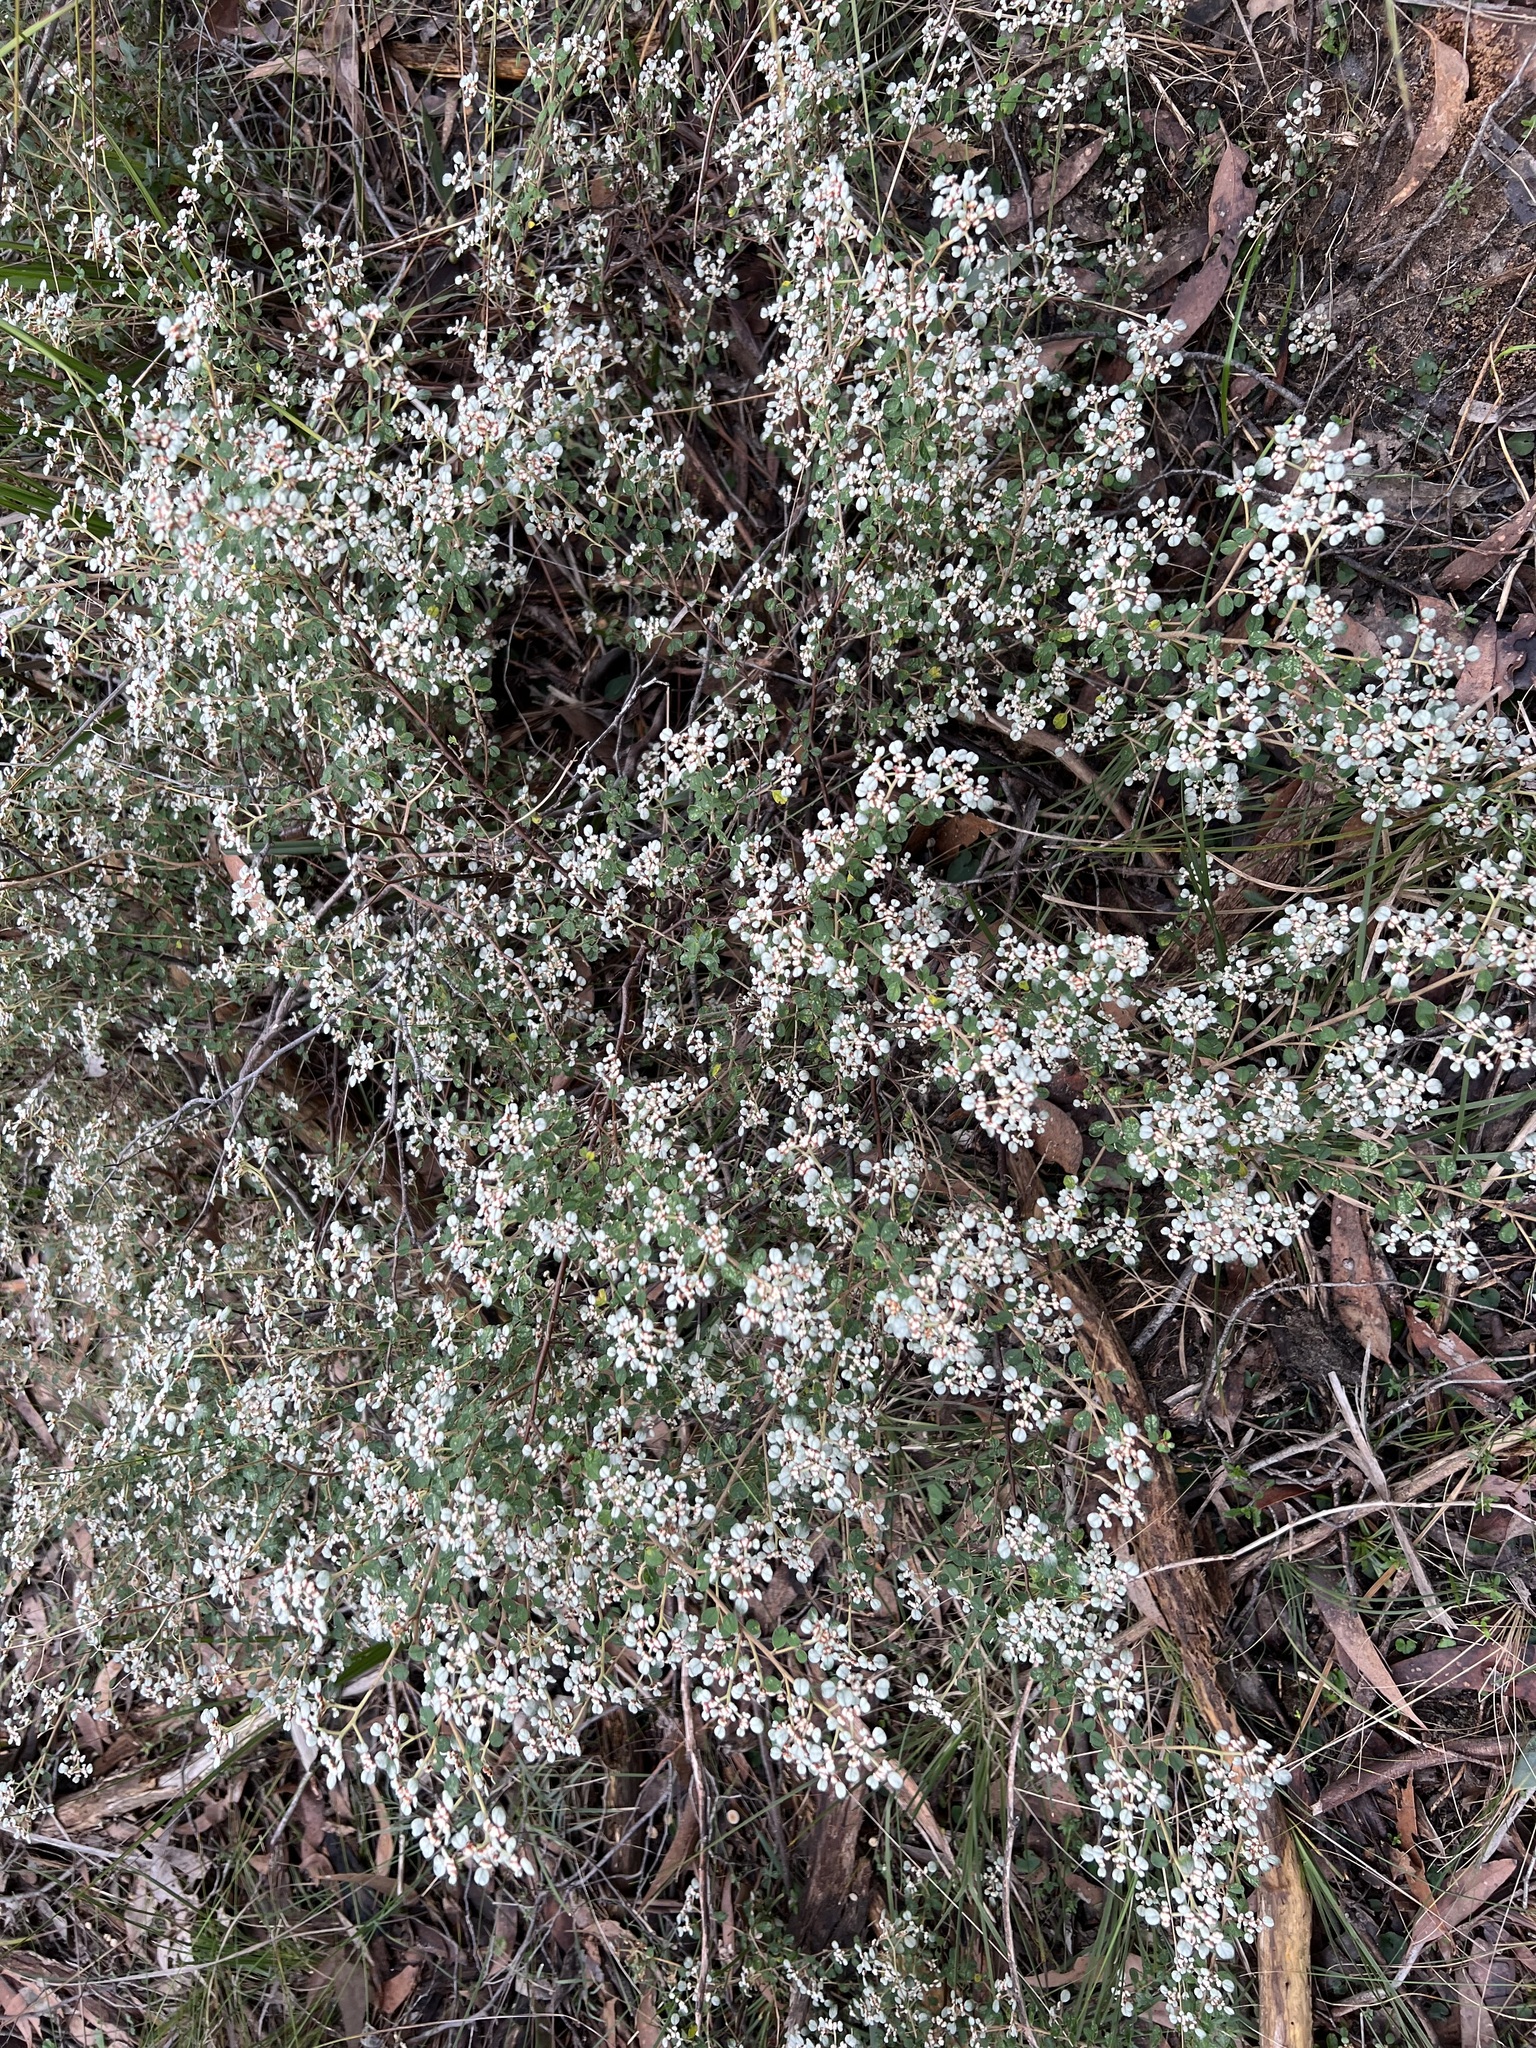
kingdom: Plantae
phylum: Tracheophyta
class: Magnoliopsida
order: Rosales
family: Rhamnaceae
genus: Spyridium
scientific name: Spyridium parvifolium
